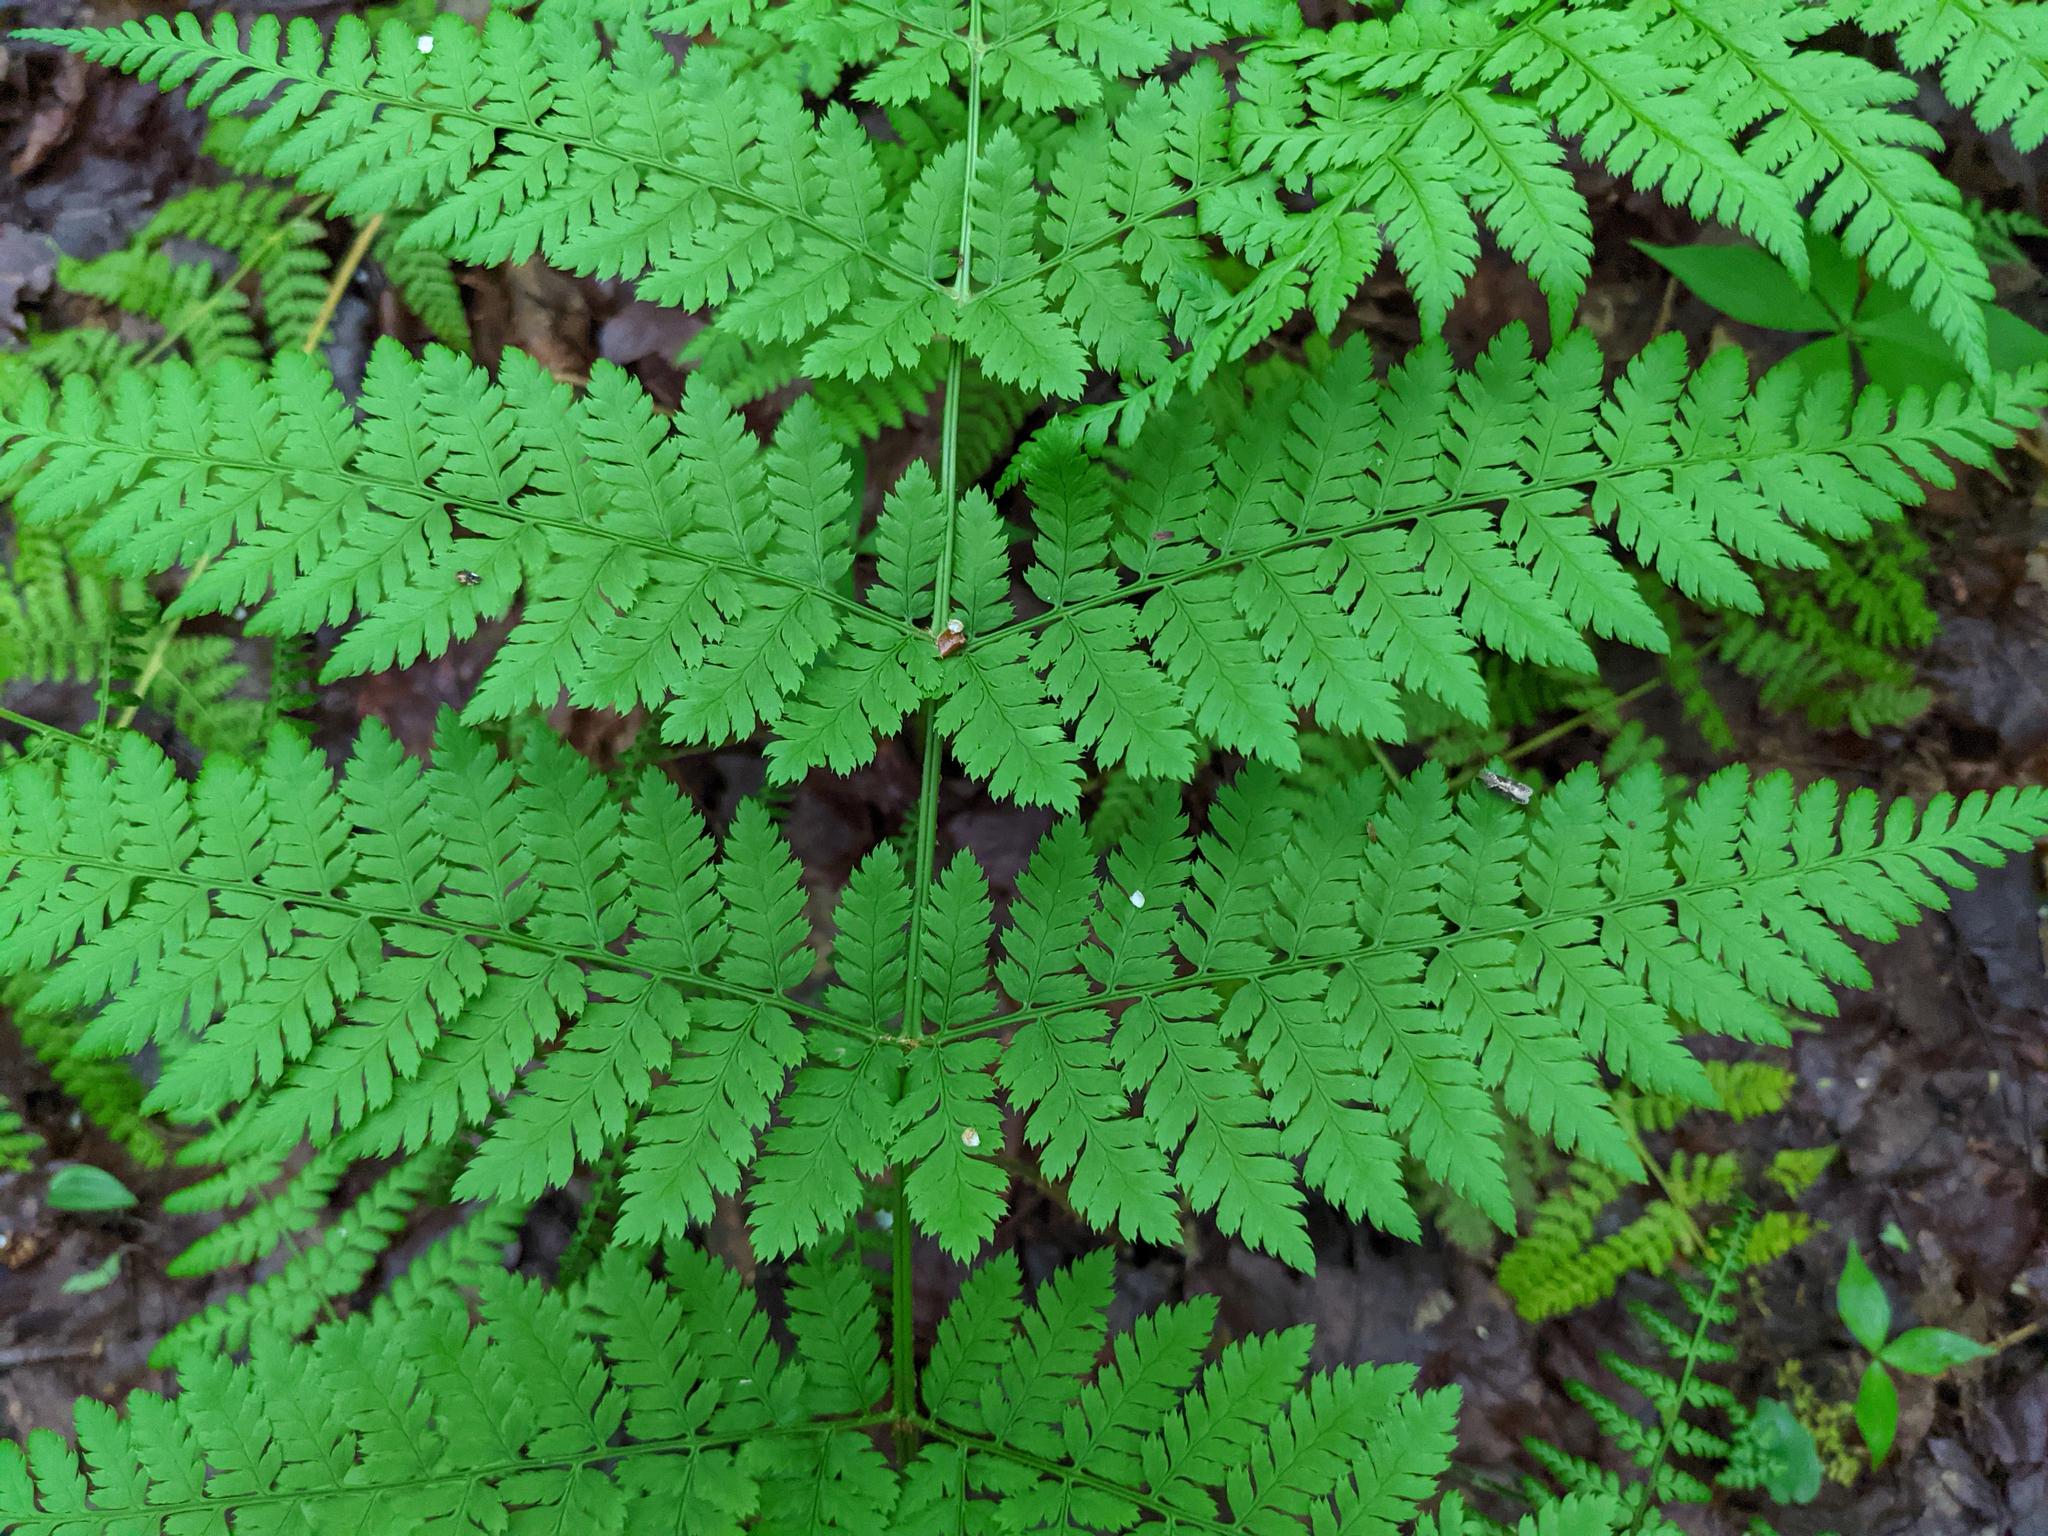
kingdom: Plantae
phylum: Tracheophyta
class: Polypodiopsida
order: Polypodiales
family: Dryopteridaceae
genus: Dryopteris
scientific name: Dryopteris intermedia
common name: Evergreen wood fern
